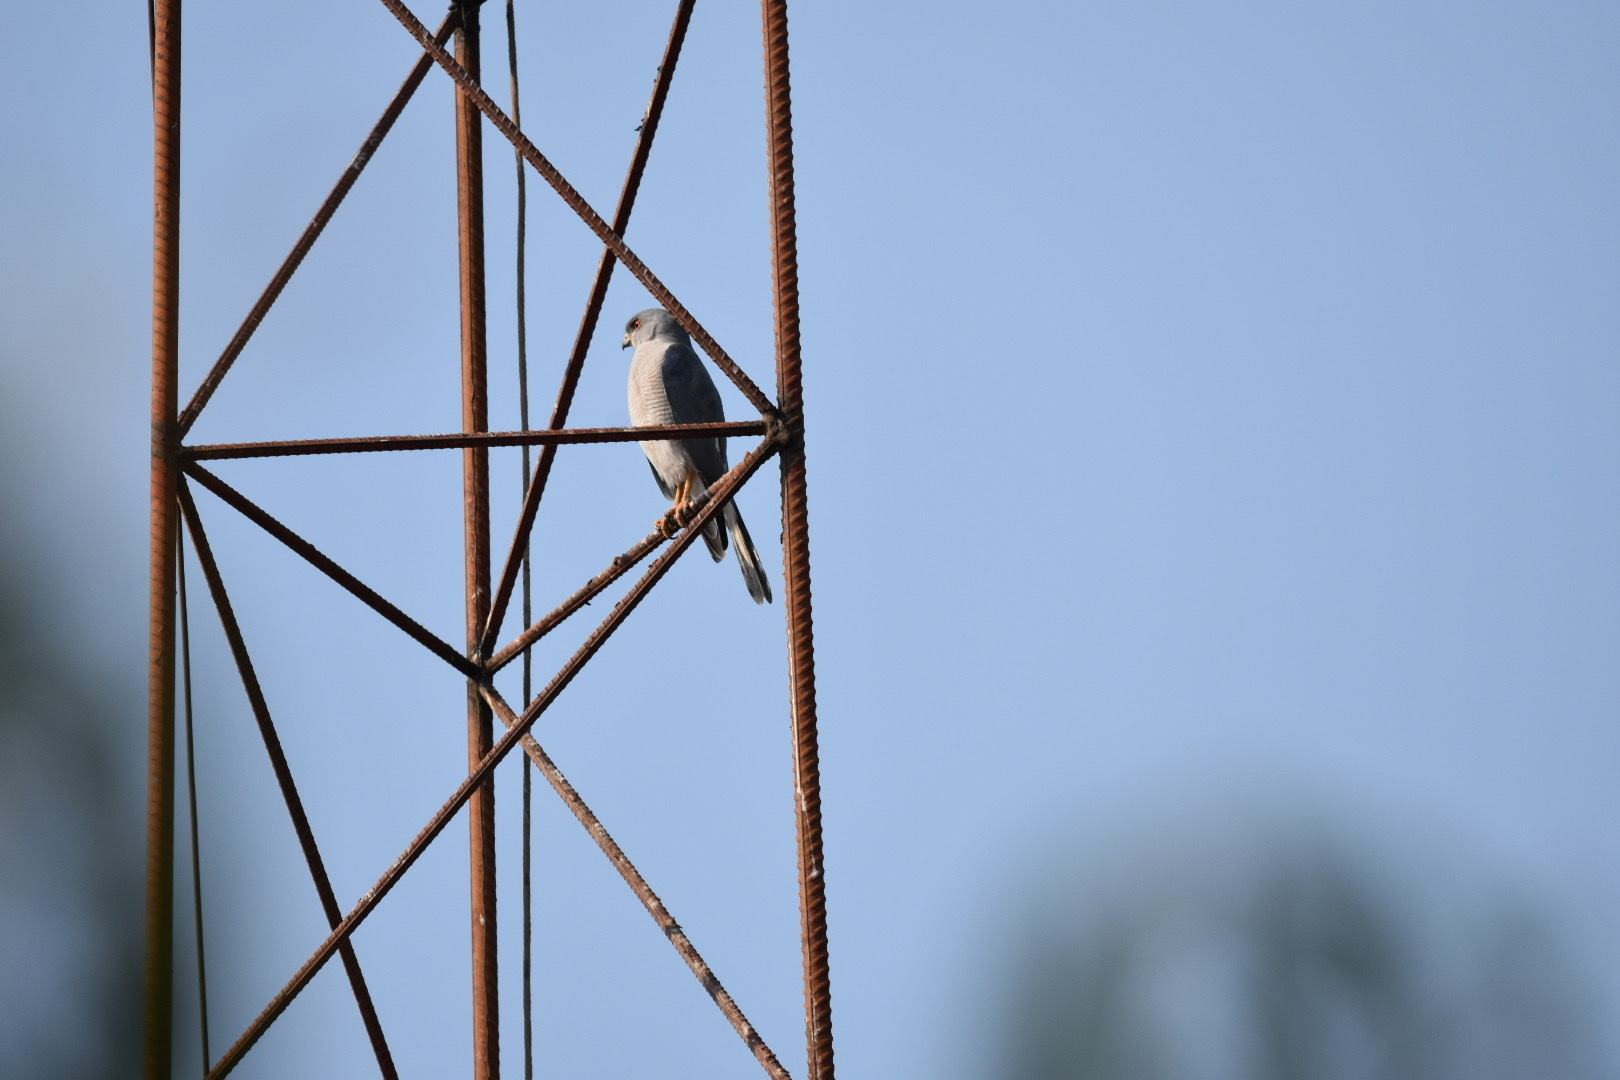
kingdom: Animalia
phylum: Chordata
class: Aves
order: Accipitriformes
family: Accipitridae
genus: Accipiter
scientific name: Accipiter badius
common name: Shikra
